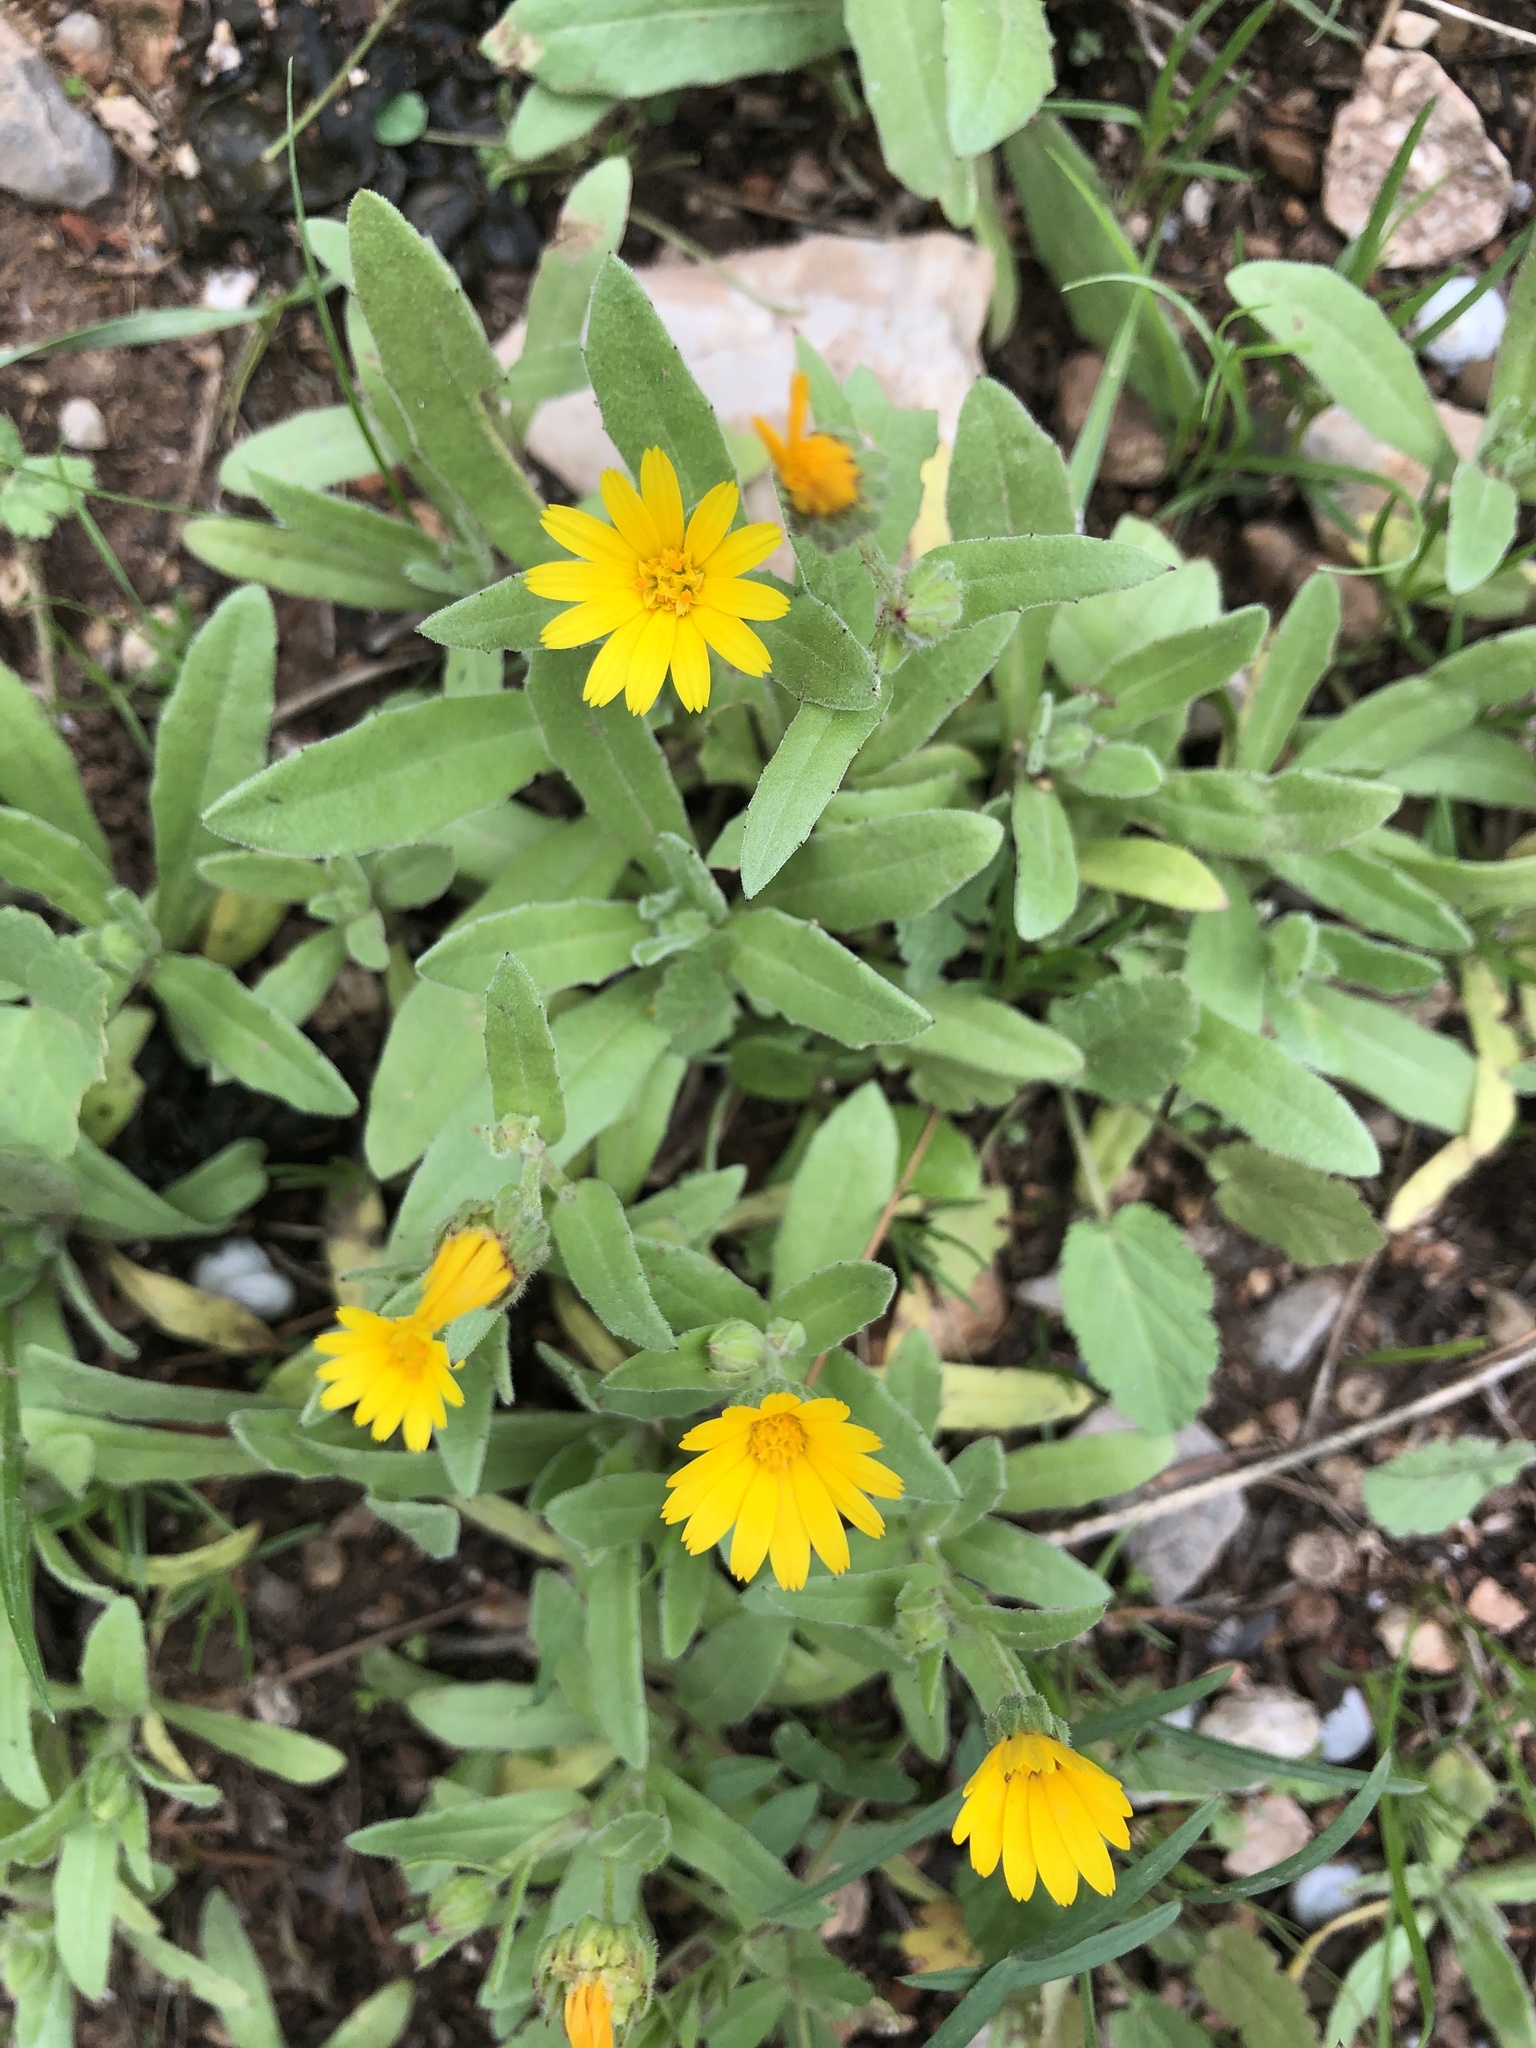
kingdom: Plantae
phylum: Tracheophyta
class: Magnoliopsida
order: Asterales
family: Asteraceae
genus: Calendula
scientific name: Calendula arvensis
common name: Field marigold
